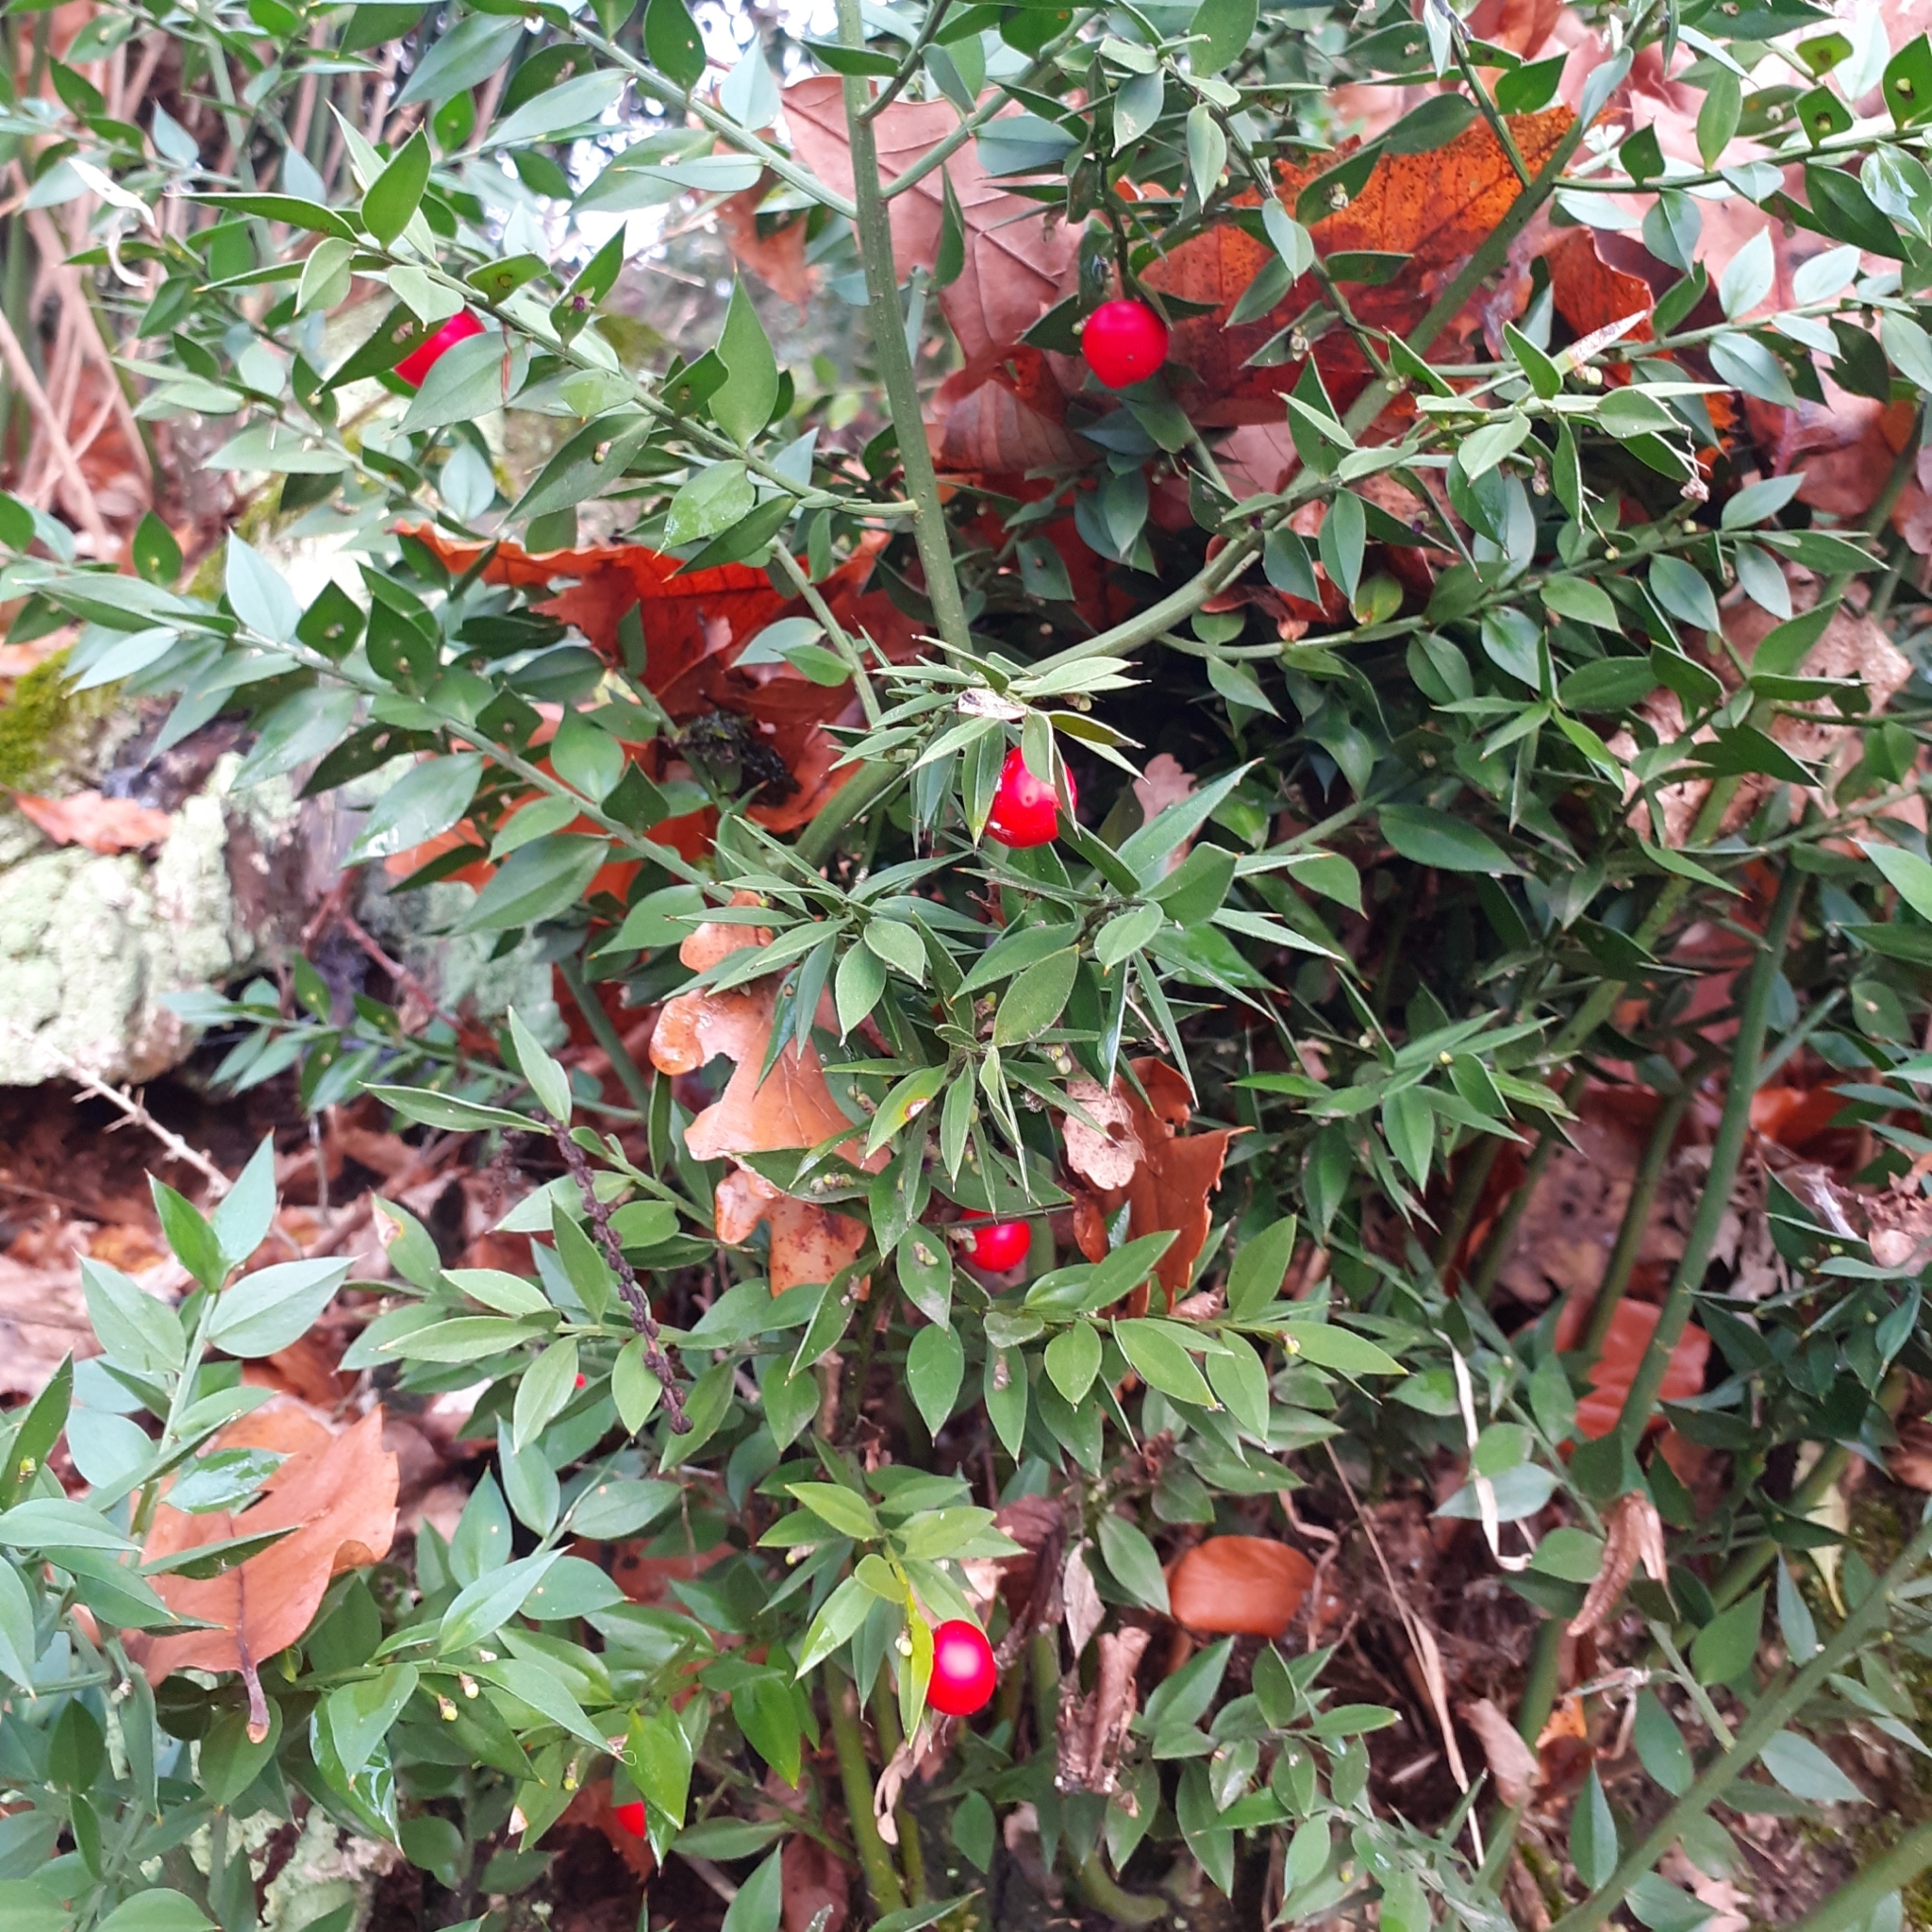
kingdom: Plantae
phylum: Tracheophyta
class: Liliopsida
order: Asparagales
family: Asparagaceae
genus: Ruscus
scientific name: Ruscus aculeatus
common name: Butcher's-broom
